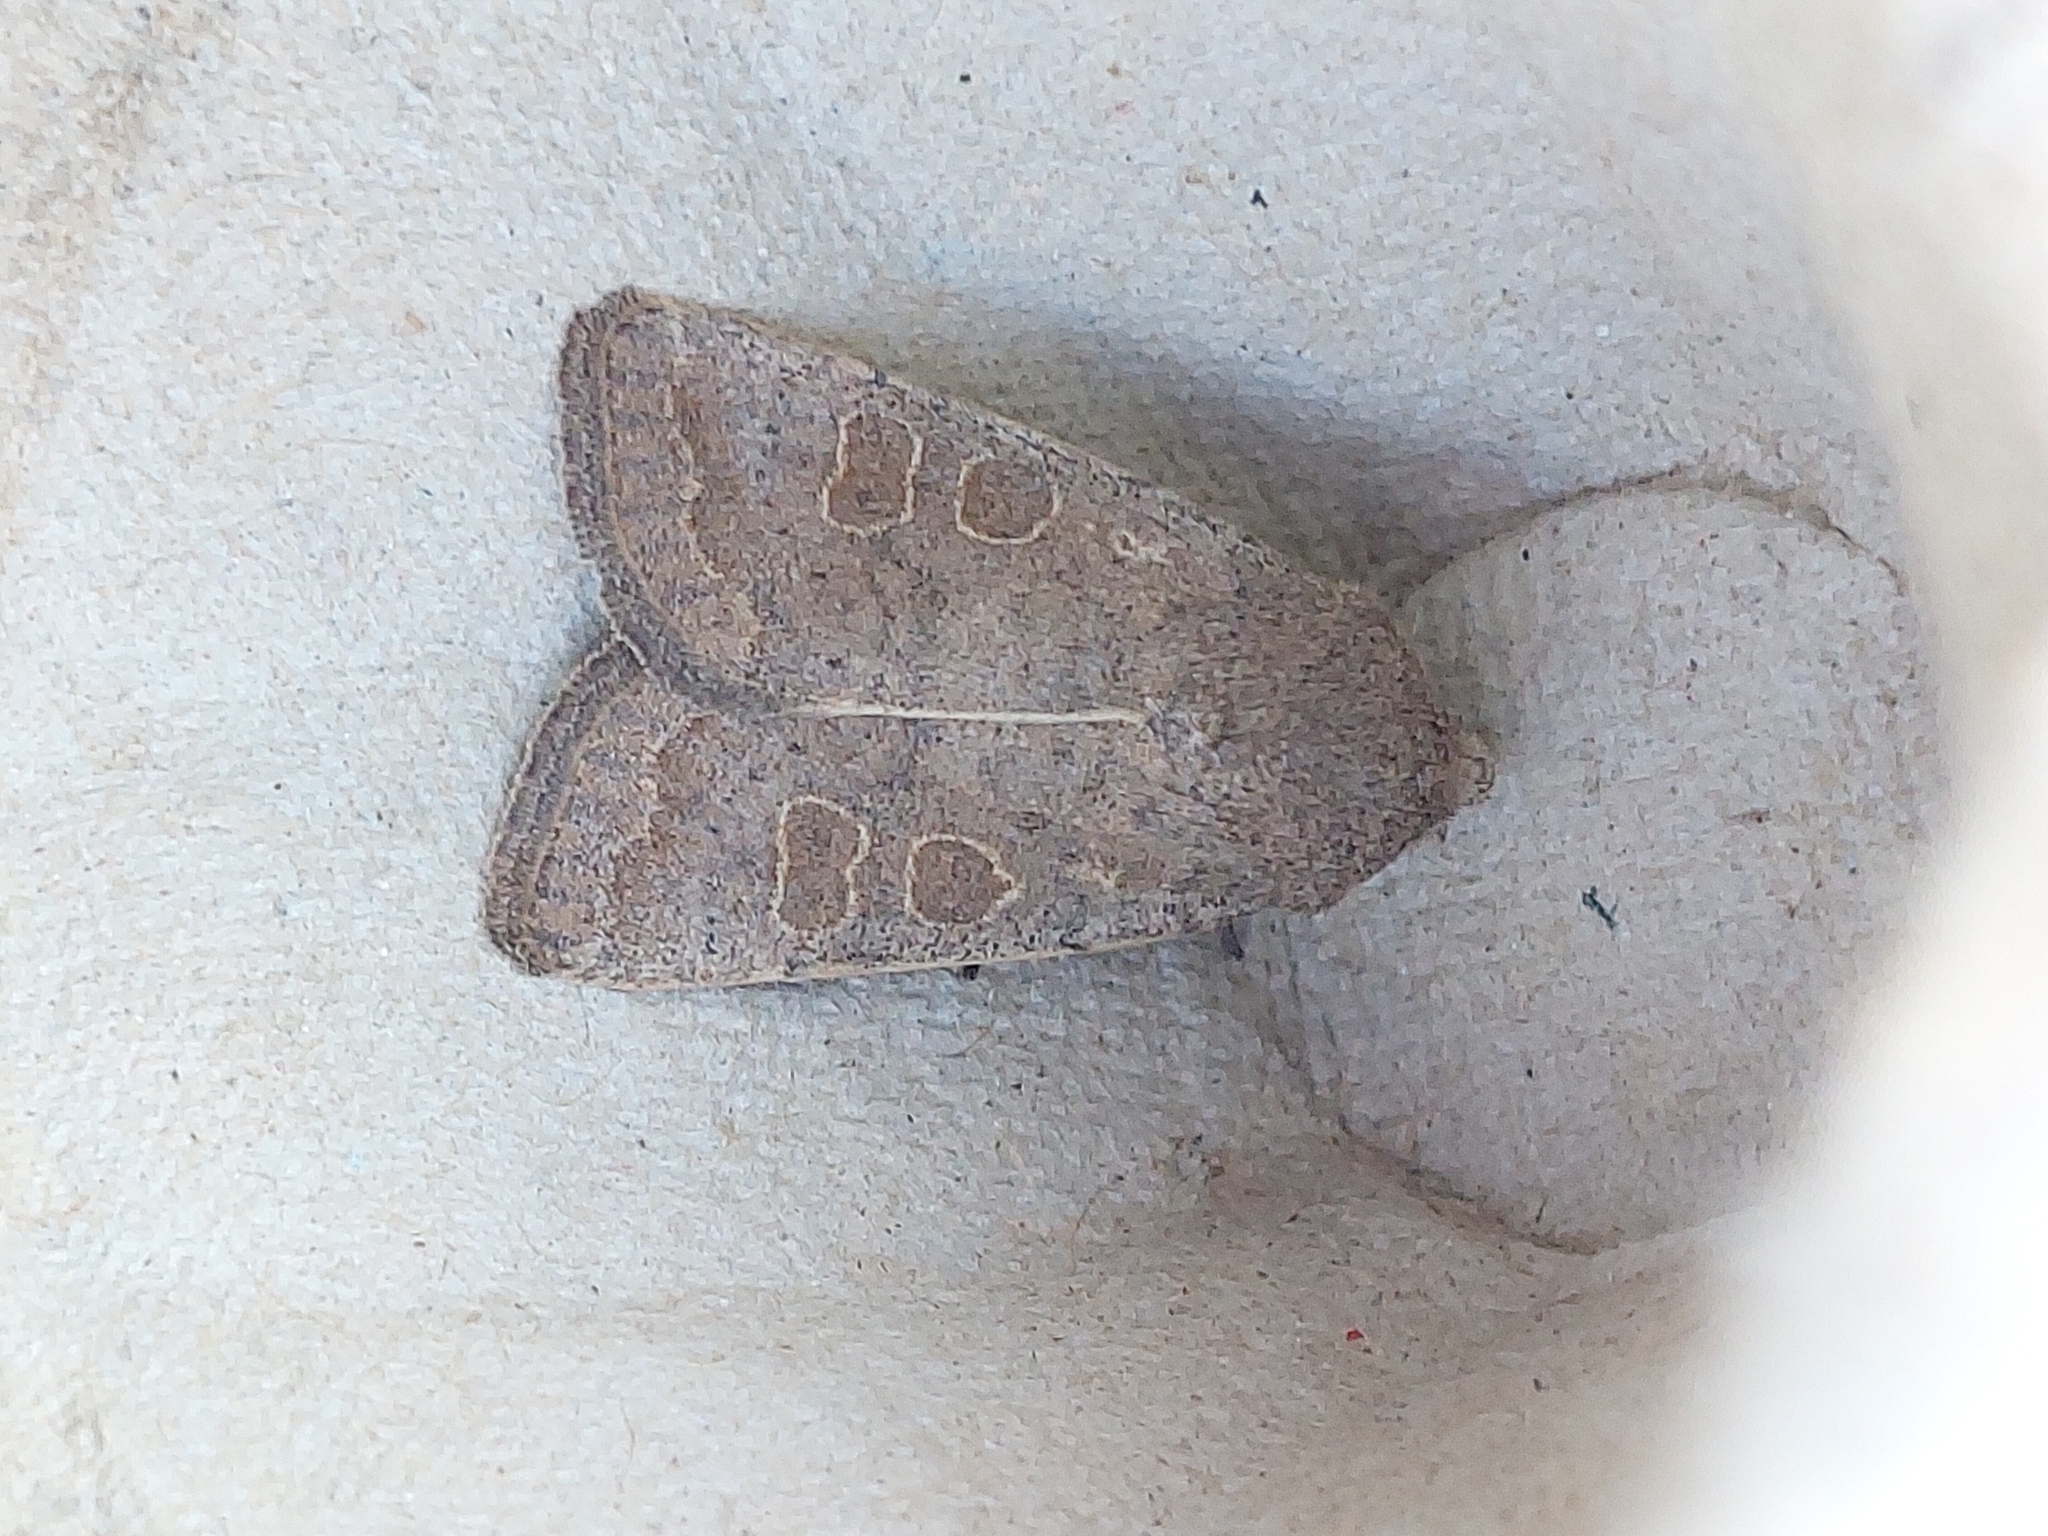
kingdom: Animalia
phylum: Arthropoda
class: Insecta
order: Lepidoptera
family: Noctuidae
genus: Hoplodrina
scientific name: Hoplodrina ambigua
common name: Vine's rustic
